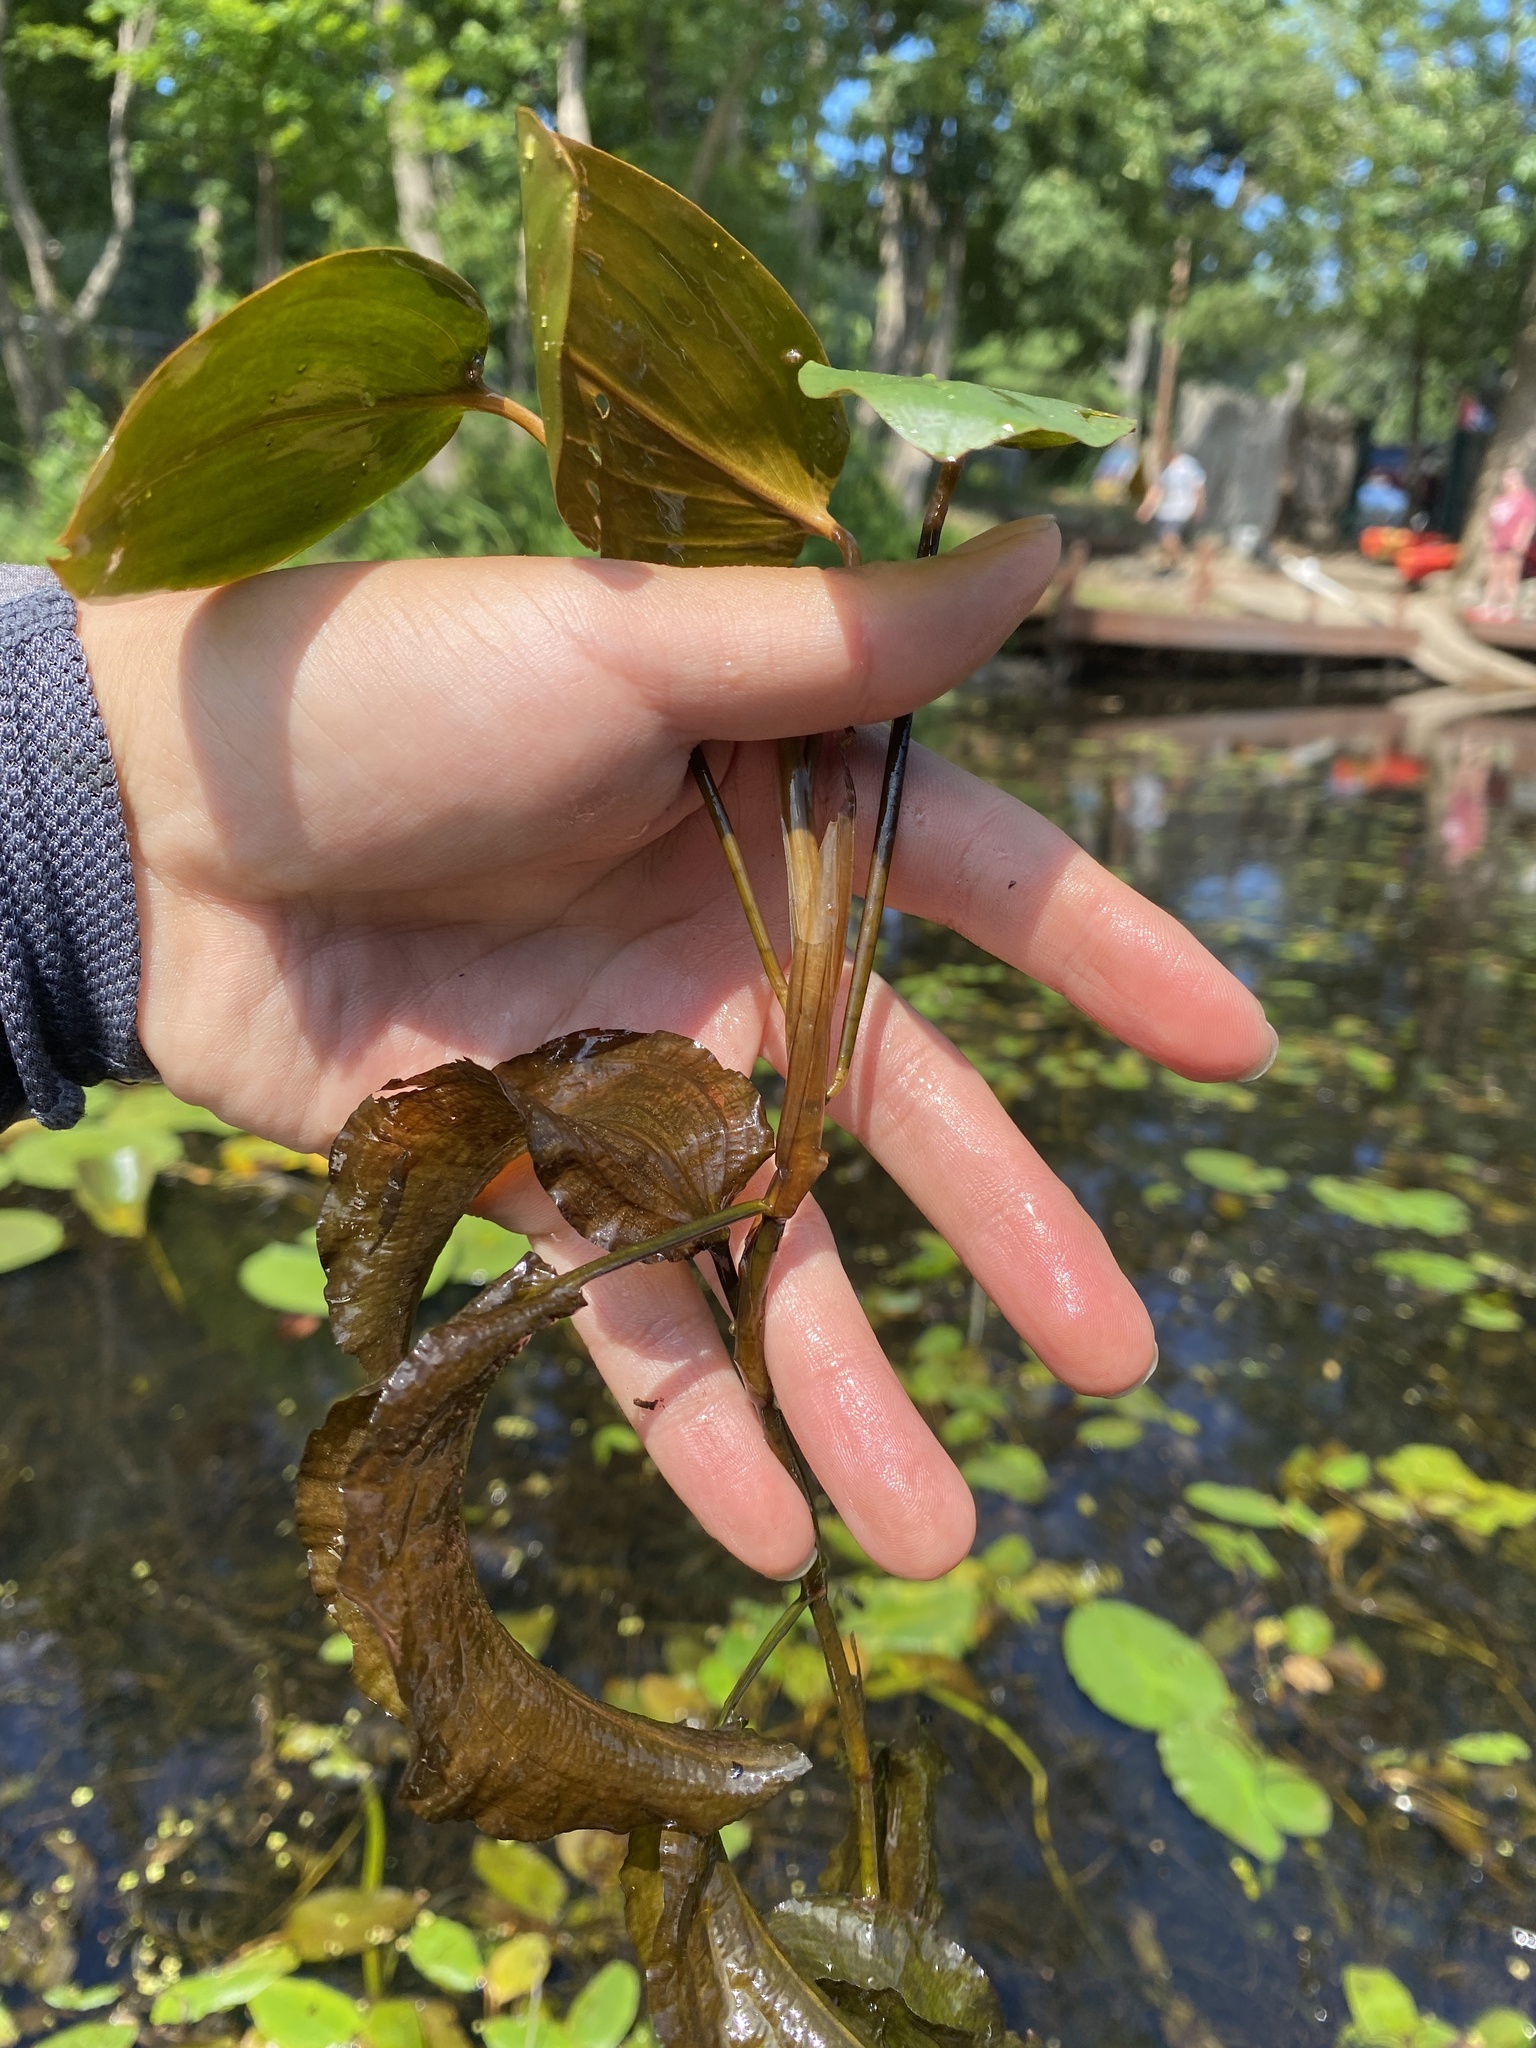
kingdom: Plantae
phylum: Tracheophyta
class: Liliopsida
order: Alismatales
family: Potamogetonaceae
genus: Potamogeton
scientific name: Potamogeton pulcher
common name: Heart-leaved pondweed
